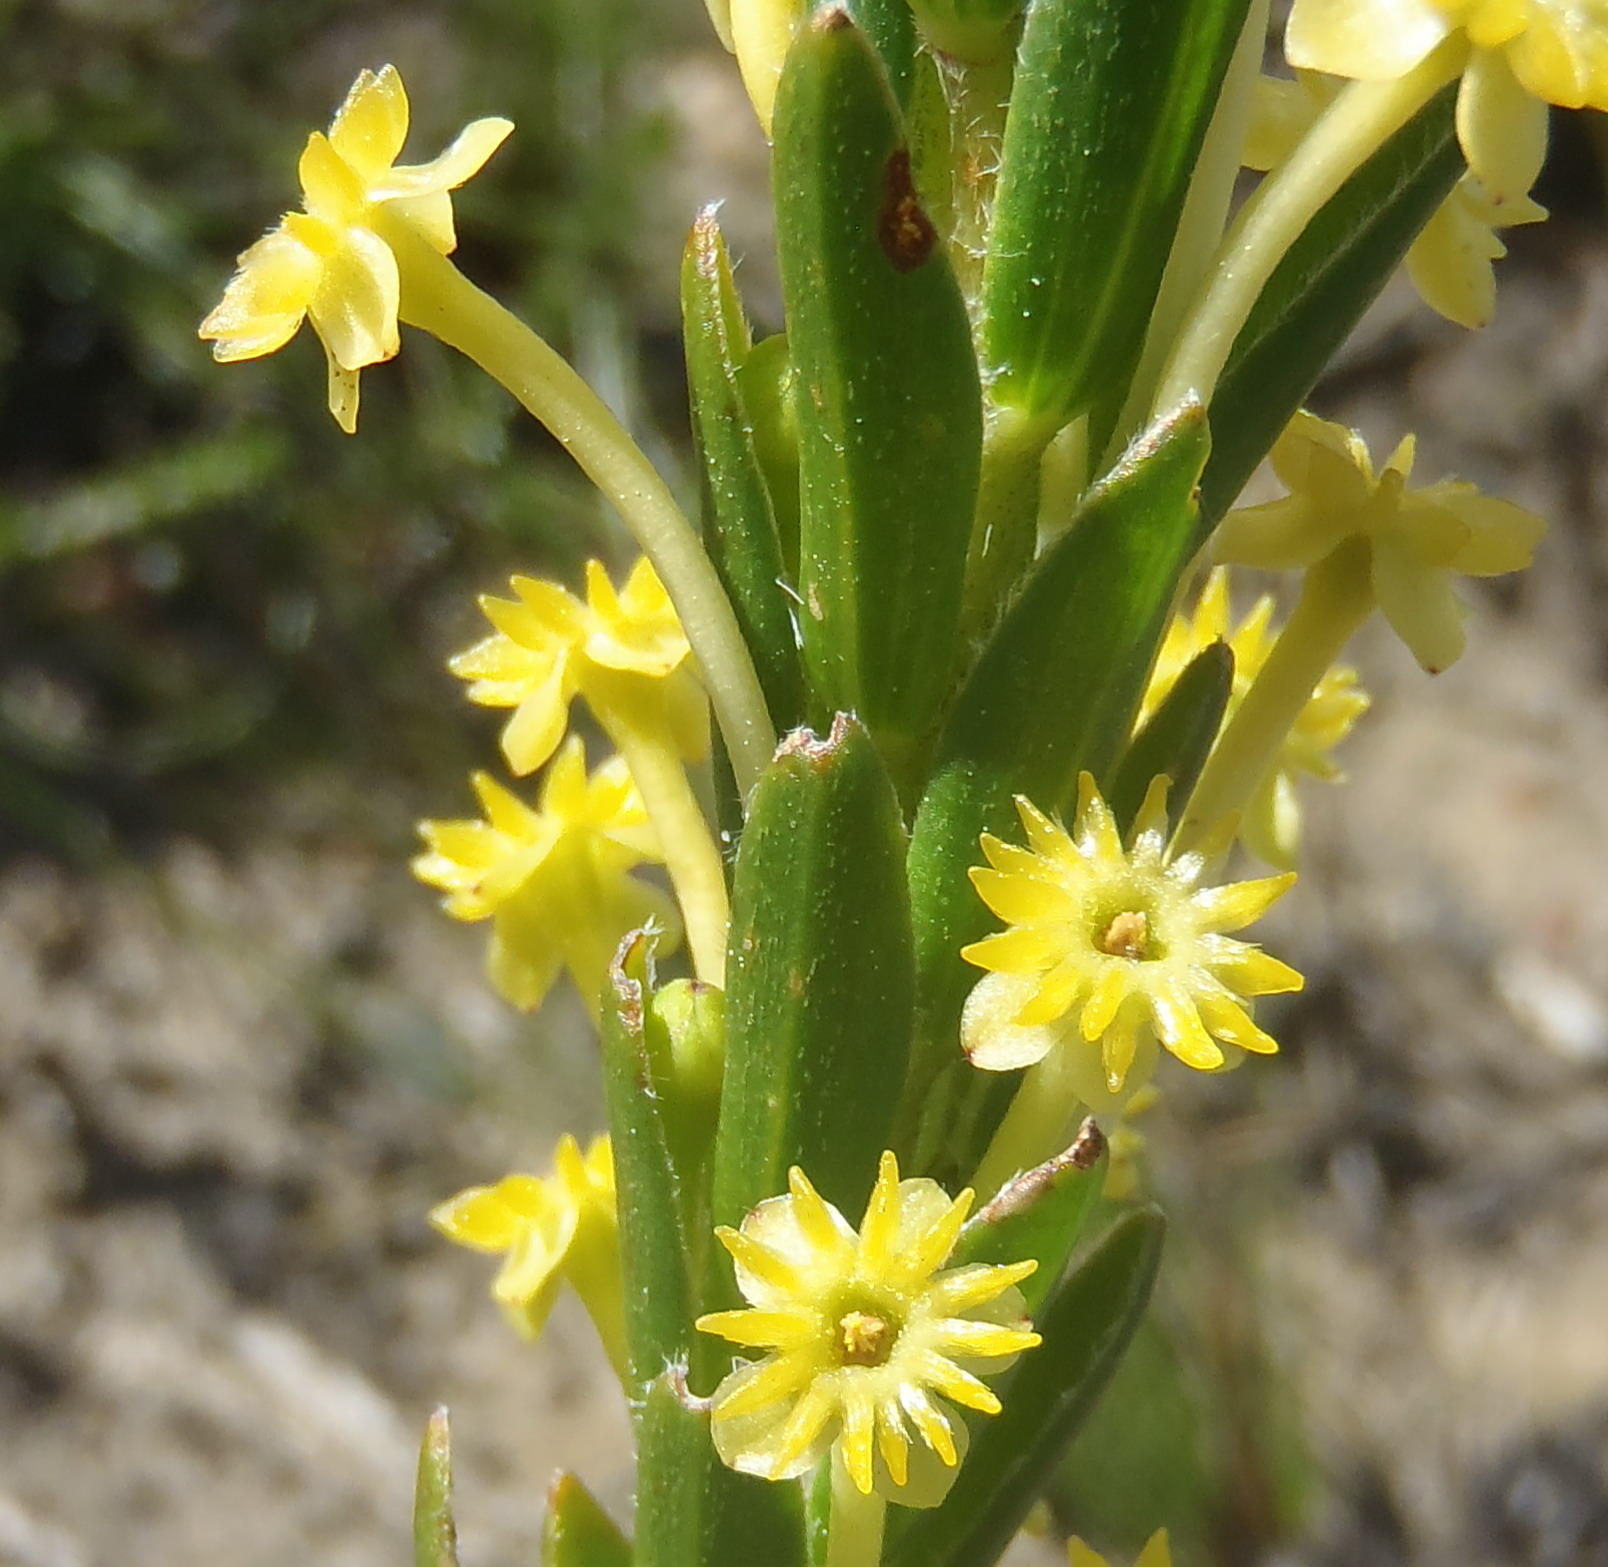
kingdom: Plantae
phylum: Tracheophyta
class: Magnoliopsida
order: Malvales
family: Thymelaeaceae
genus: Struthiola
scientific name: Struthiola garciana
